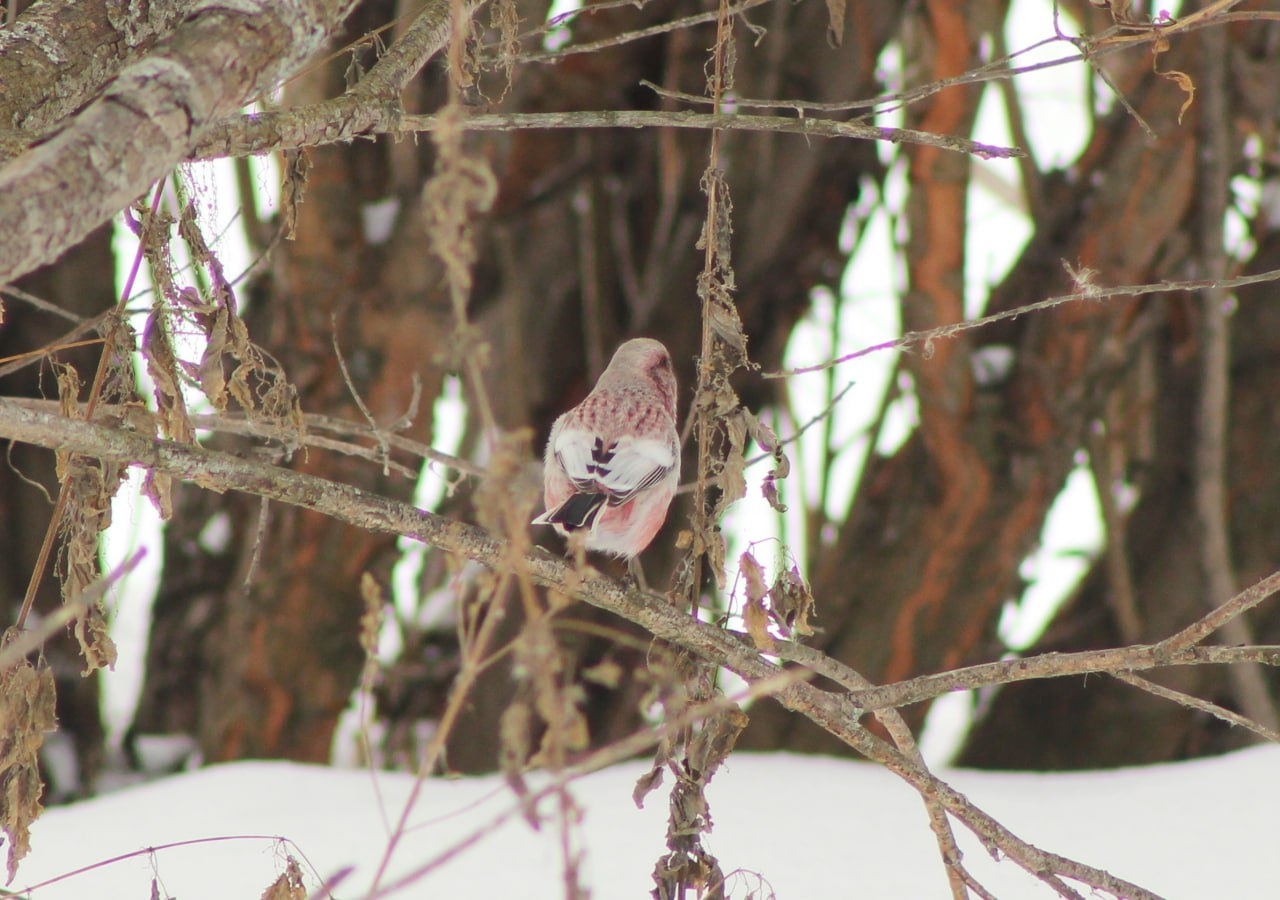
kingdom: Animalia
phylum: Chordata
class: Aves
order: Passeriformes
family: Fringillidae
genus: Carpodacus
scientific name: Carpodacus sibiricus
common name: Long-tailed rosefinch
